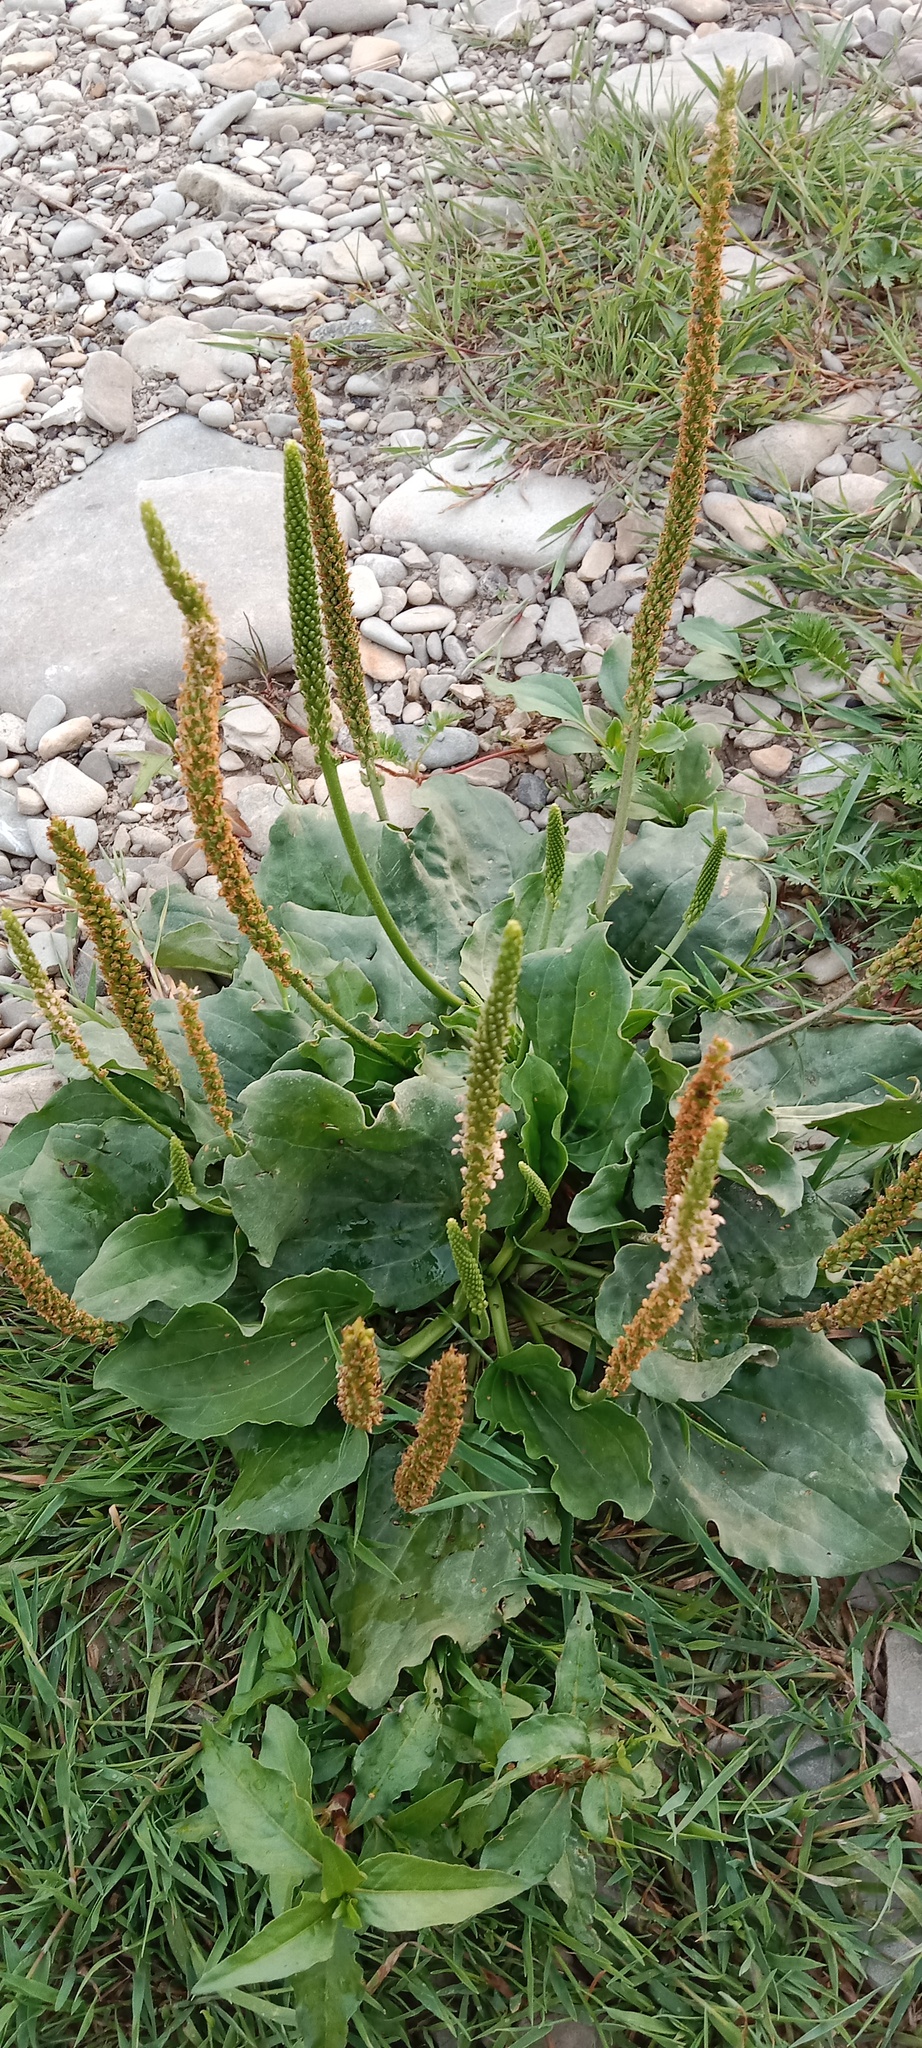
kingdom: Plantae
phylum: Tracheophyta
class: Magnoliopsida
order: Lamiales
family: Plantaginaceae
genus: Plantago
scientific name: Plantago major
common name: Common plantain
